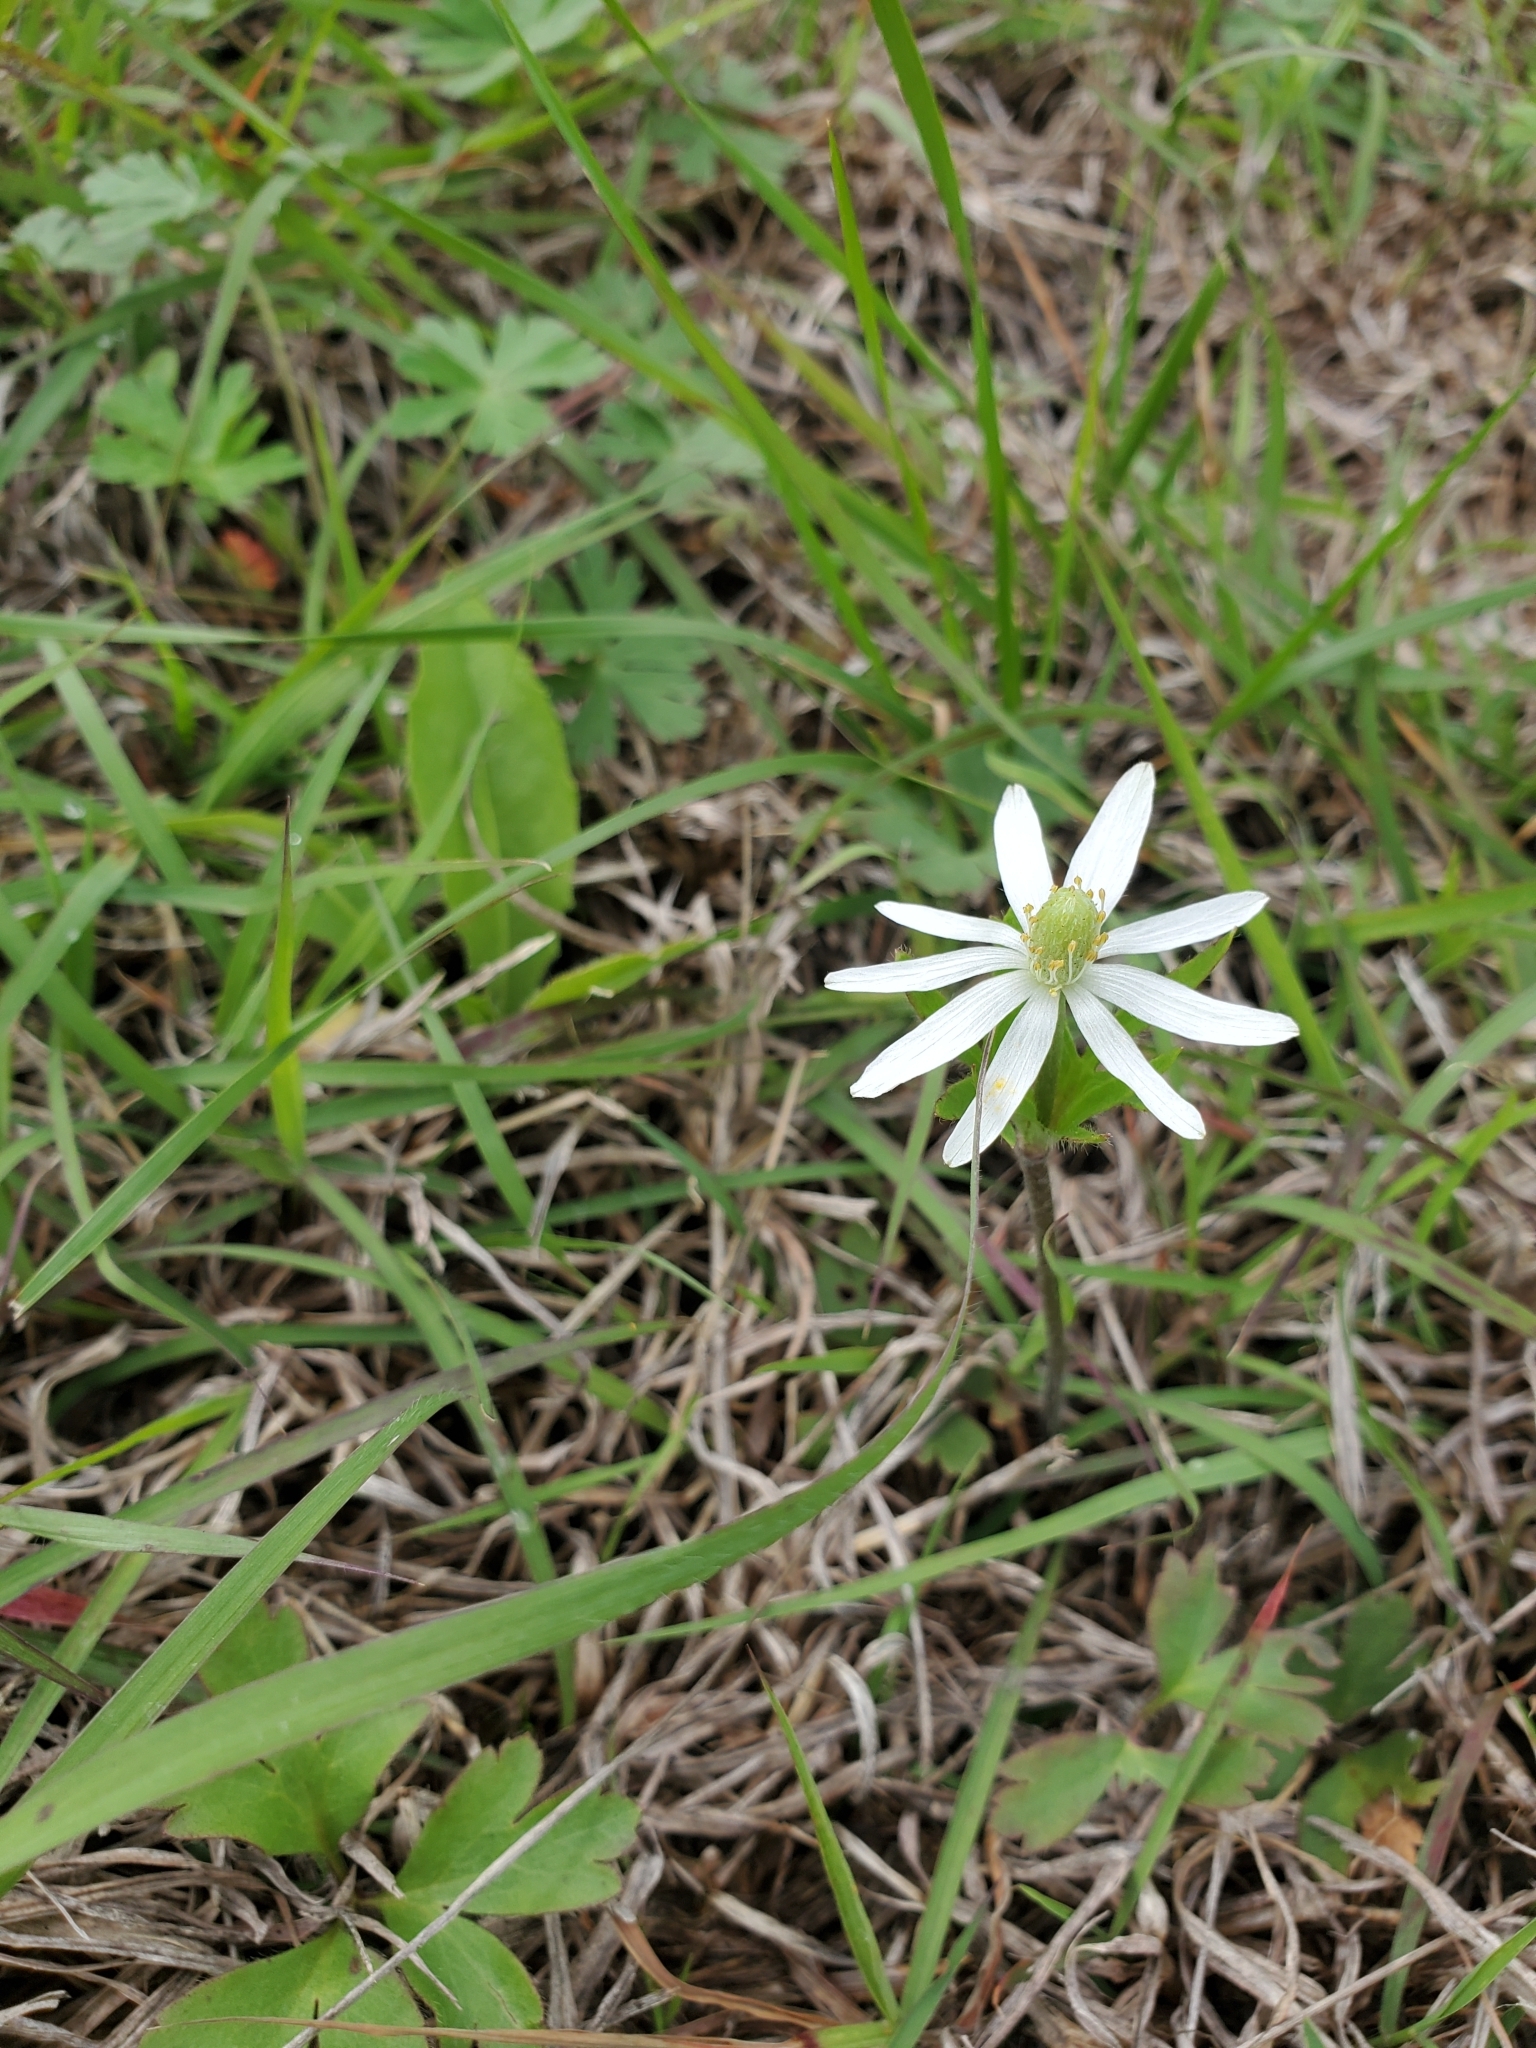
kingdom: Plantae
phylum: Tracheophyta
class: Magnoliopsida
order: Ranunculales
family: Ranunculaceae
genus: Anemone
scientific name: Anemone berlandieri
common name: Ten-petal anemone
